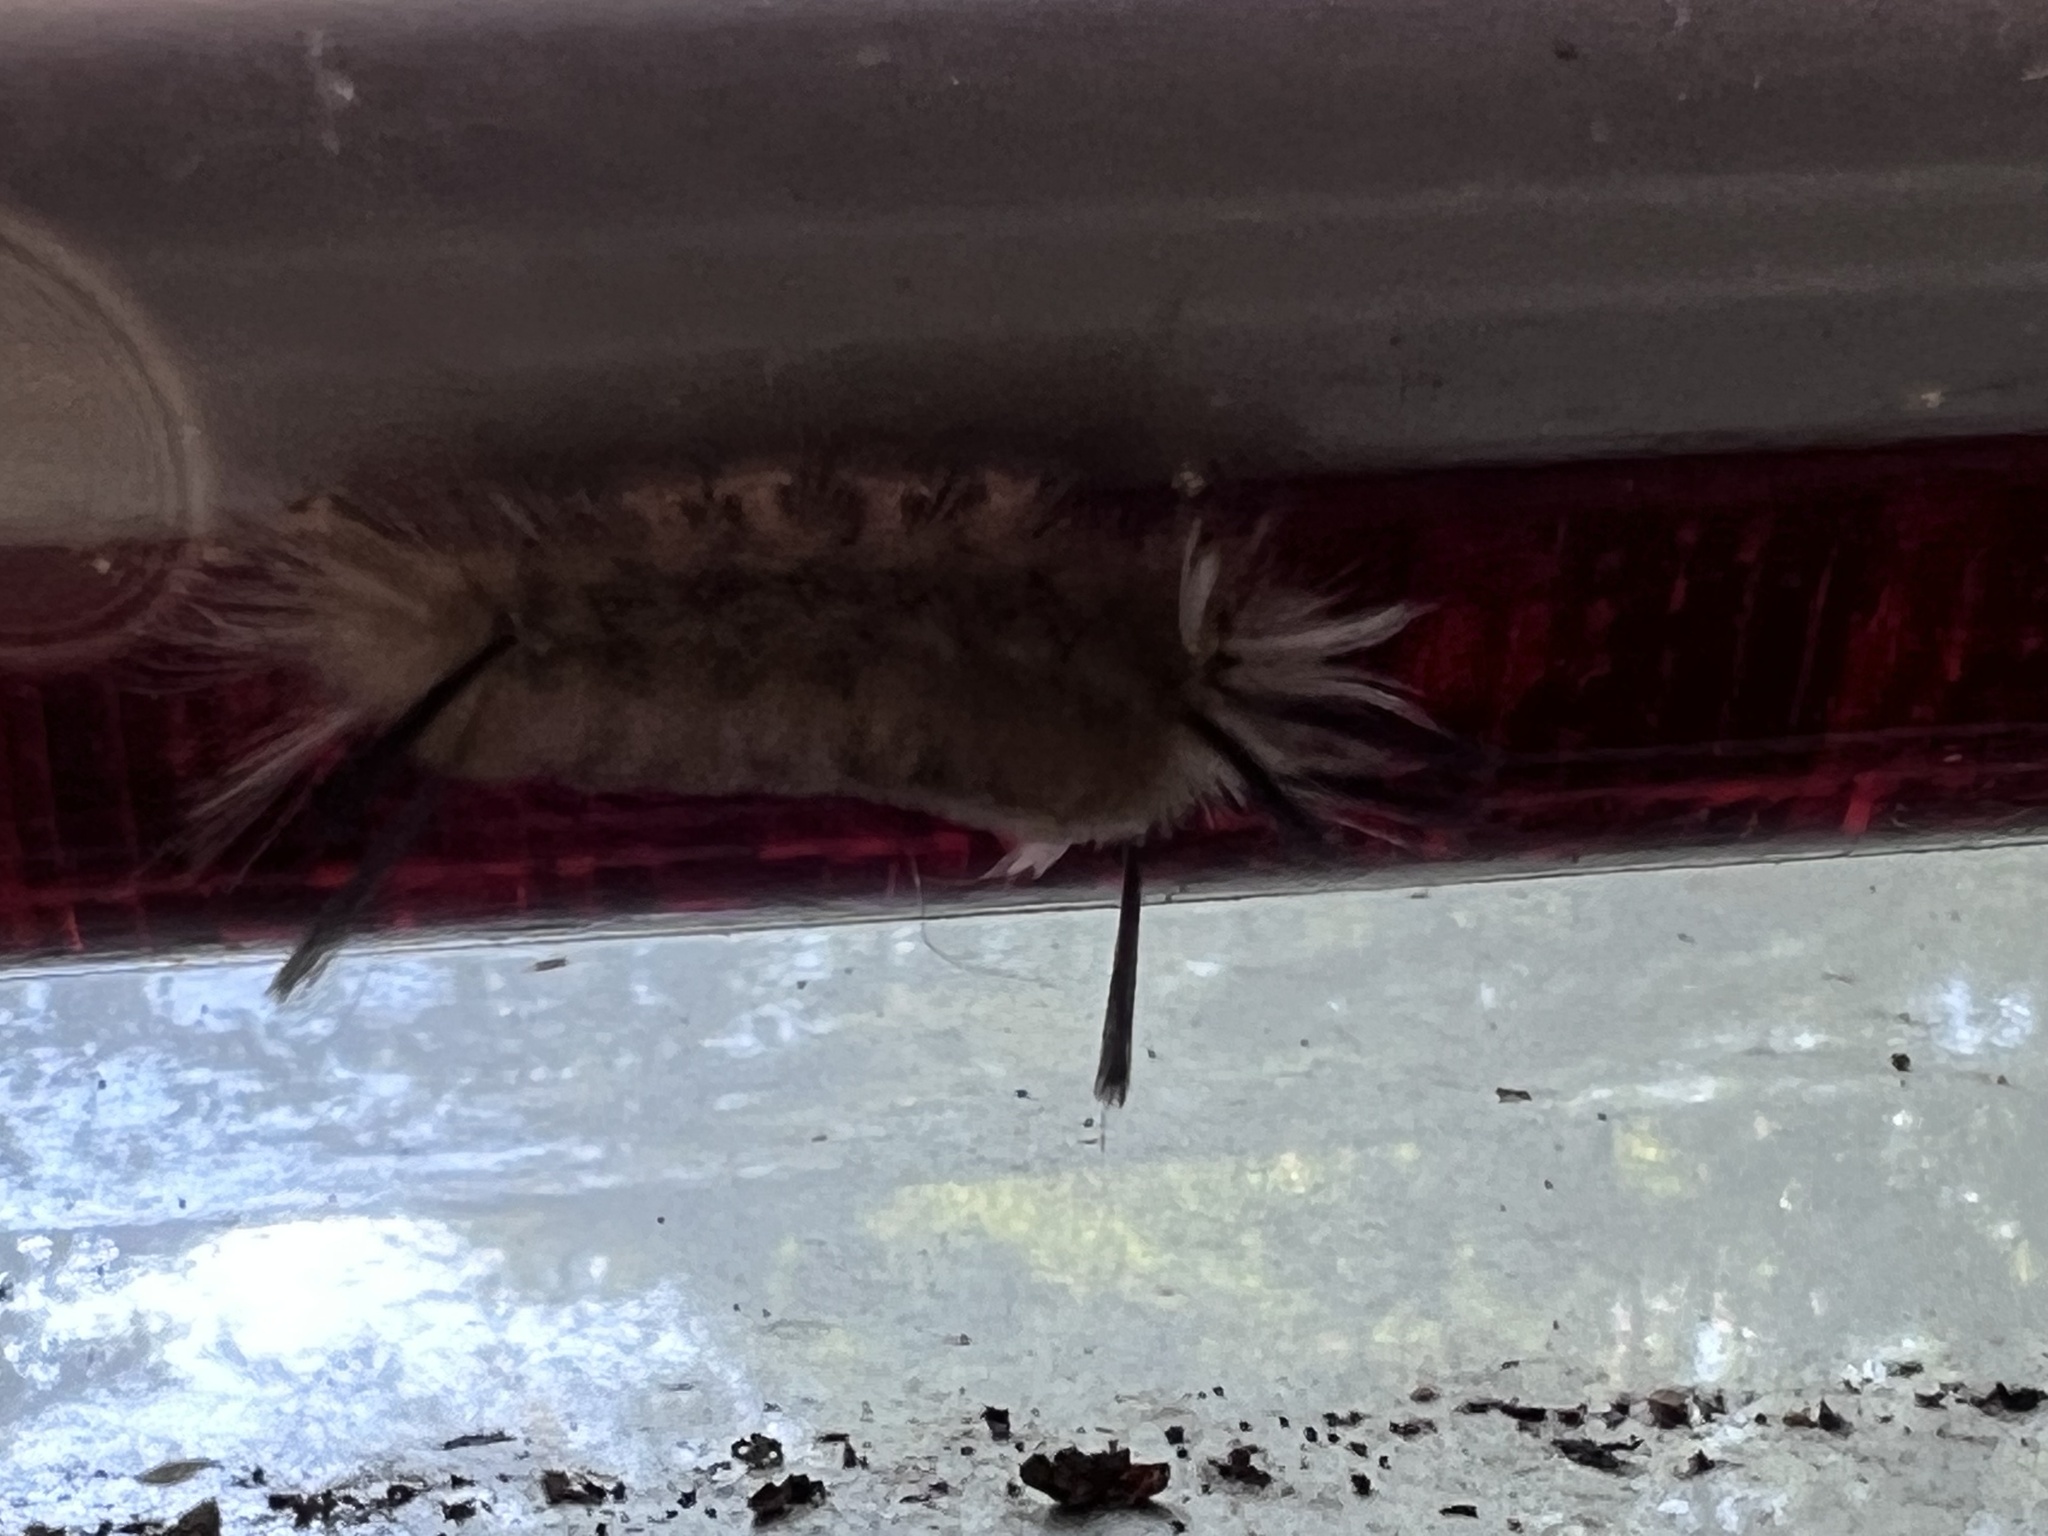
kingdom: Animalia
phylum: Arthropoda
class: Insecta
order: Lepidoptera
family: Erebidae
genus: Halysidota
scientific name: Halysidota tessellaris
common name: Banded tussock moth
